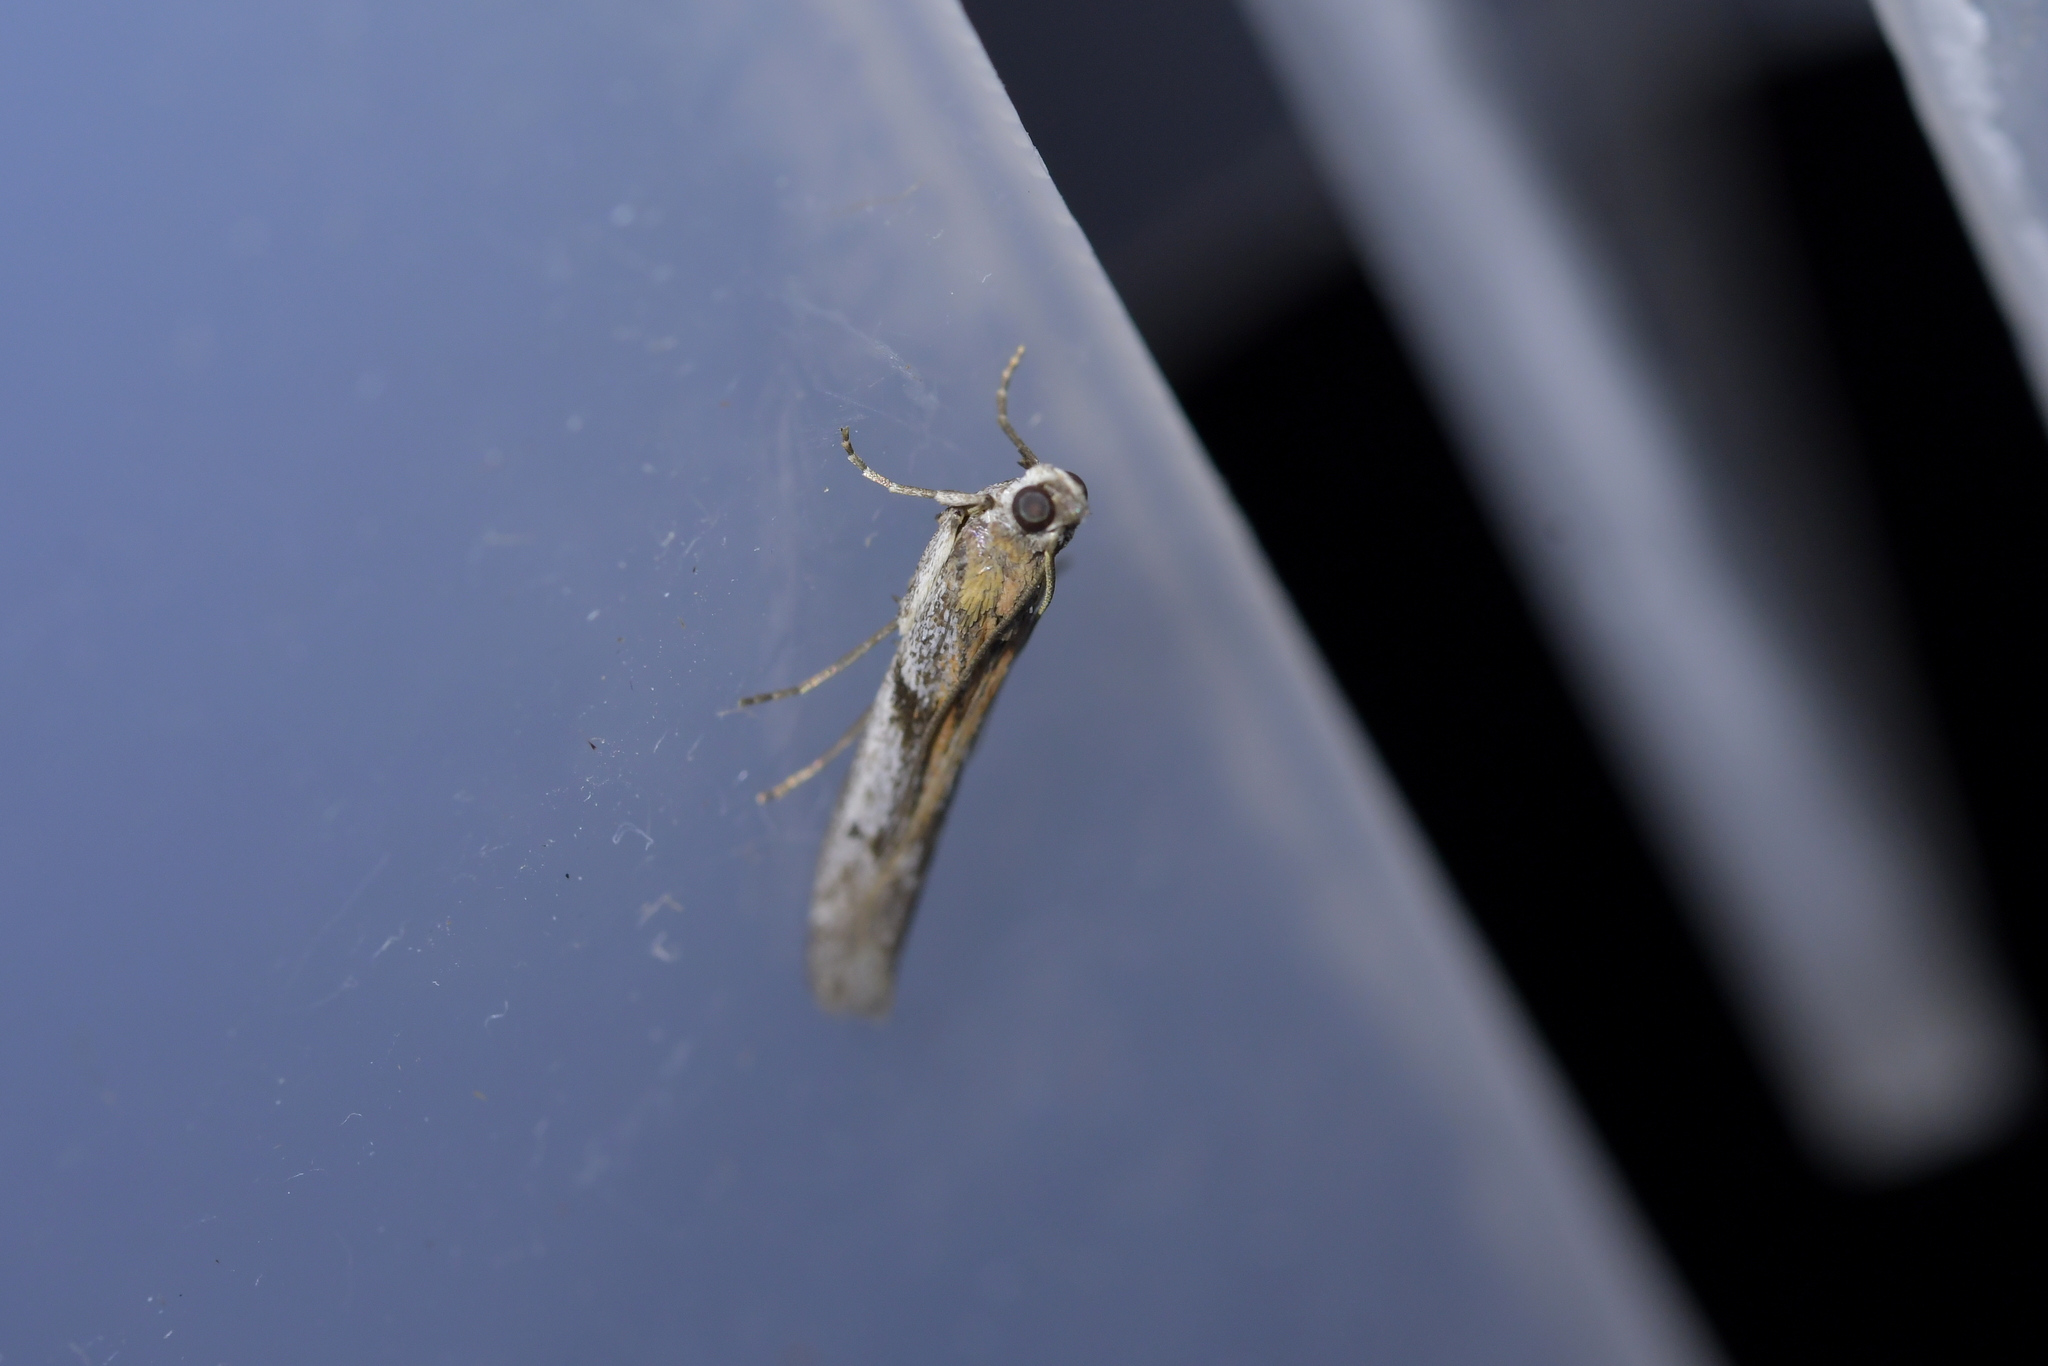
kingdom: Animalia
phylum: Arthropoda
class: Insecta
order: Lepidoptera
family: Pyralidae
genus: Patagoniodes
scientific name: Patagoniodes farinaria
